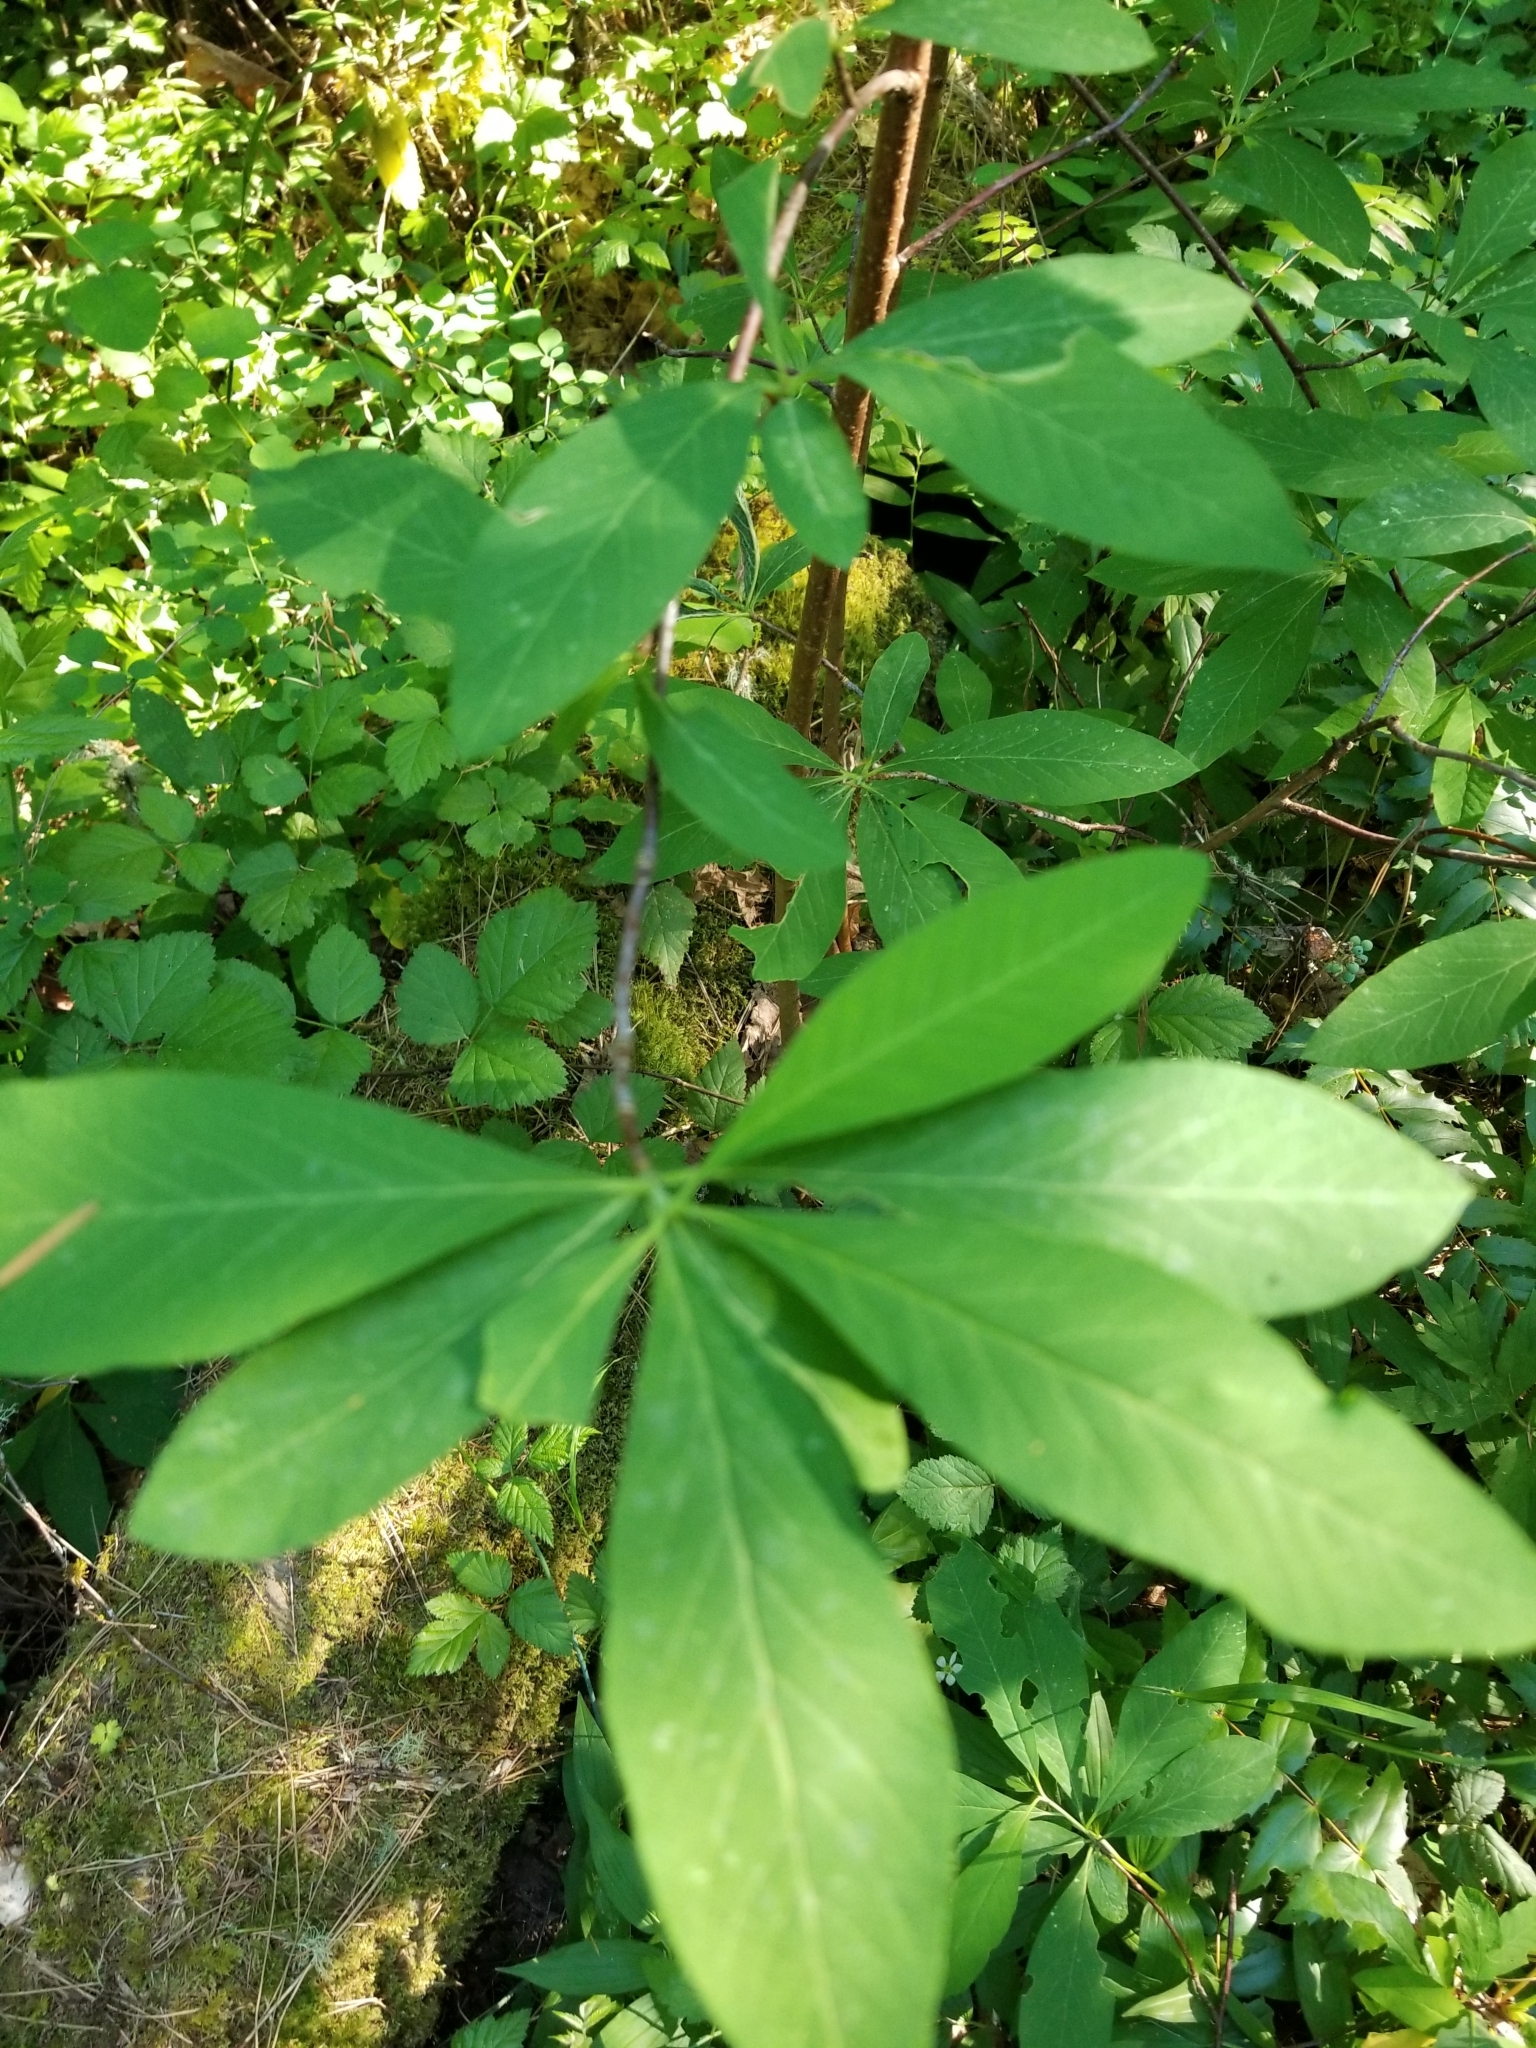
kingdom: Plantae
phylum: Tracheophyta
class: Magnoliopsida
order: Rosales
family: Rosaceae
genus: Oemleria
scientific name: Oemleria cerasiformis
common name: Osoberry
